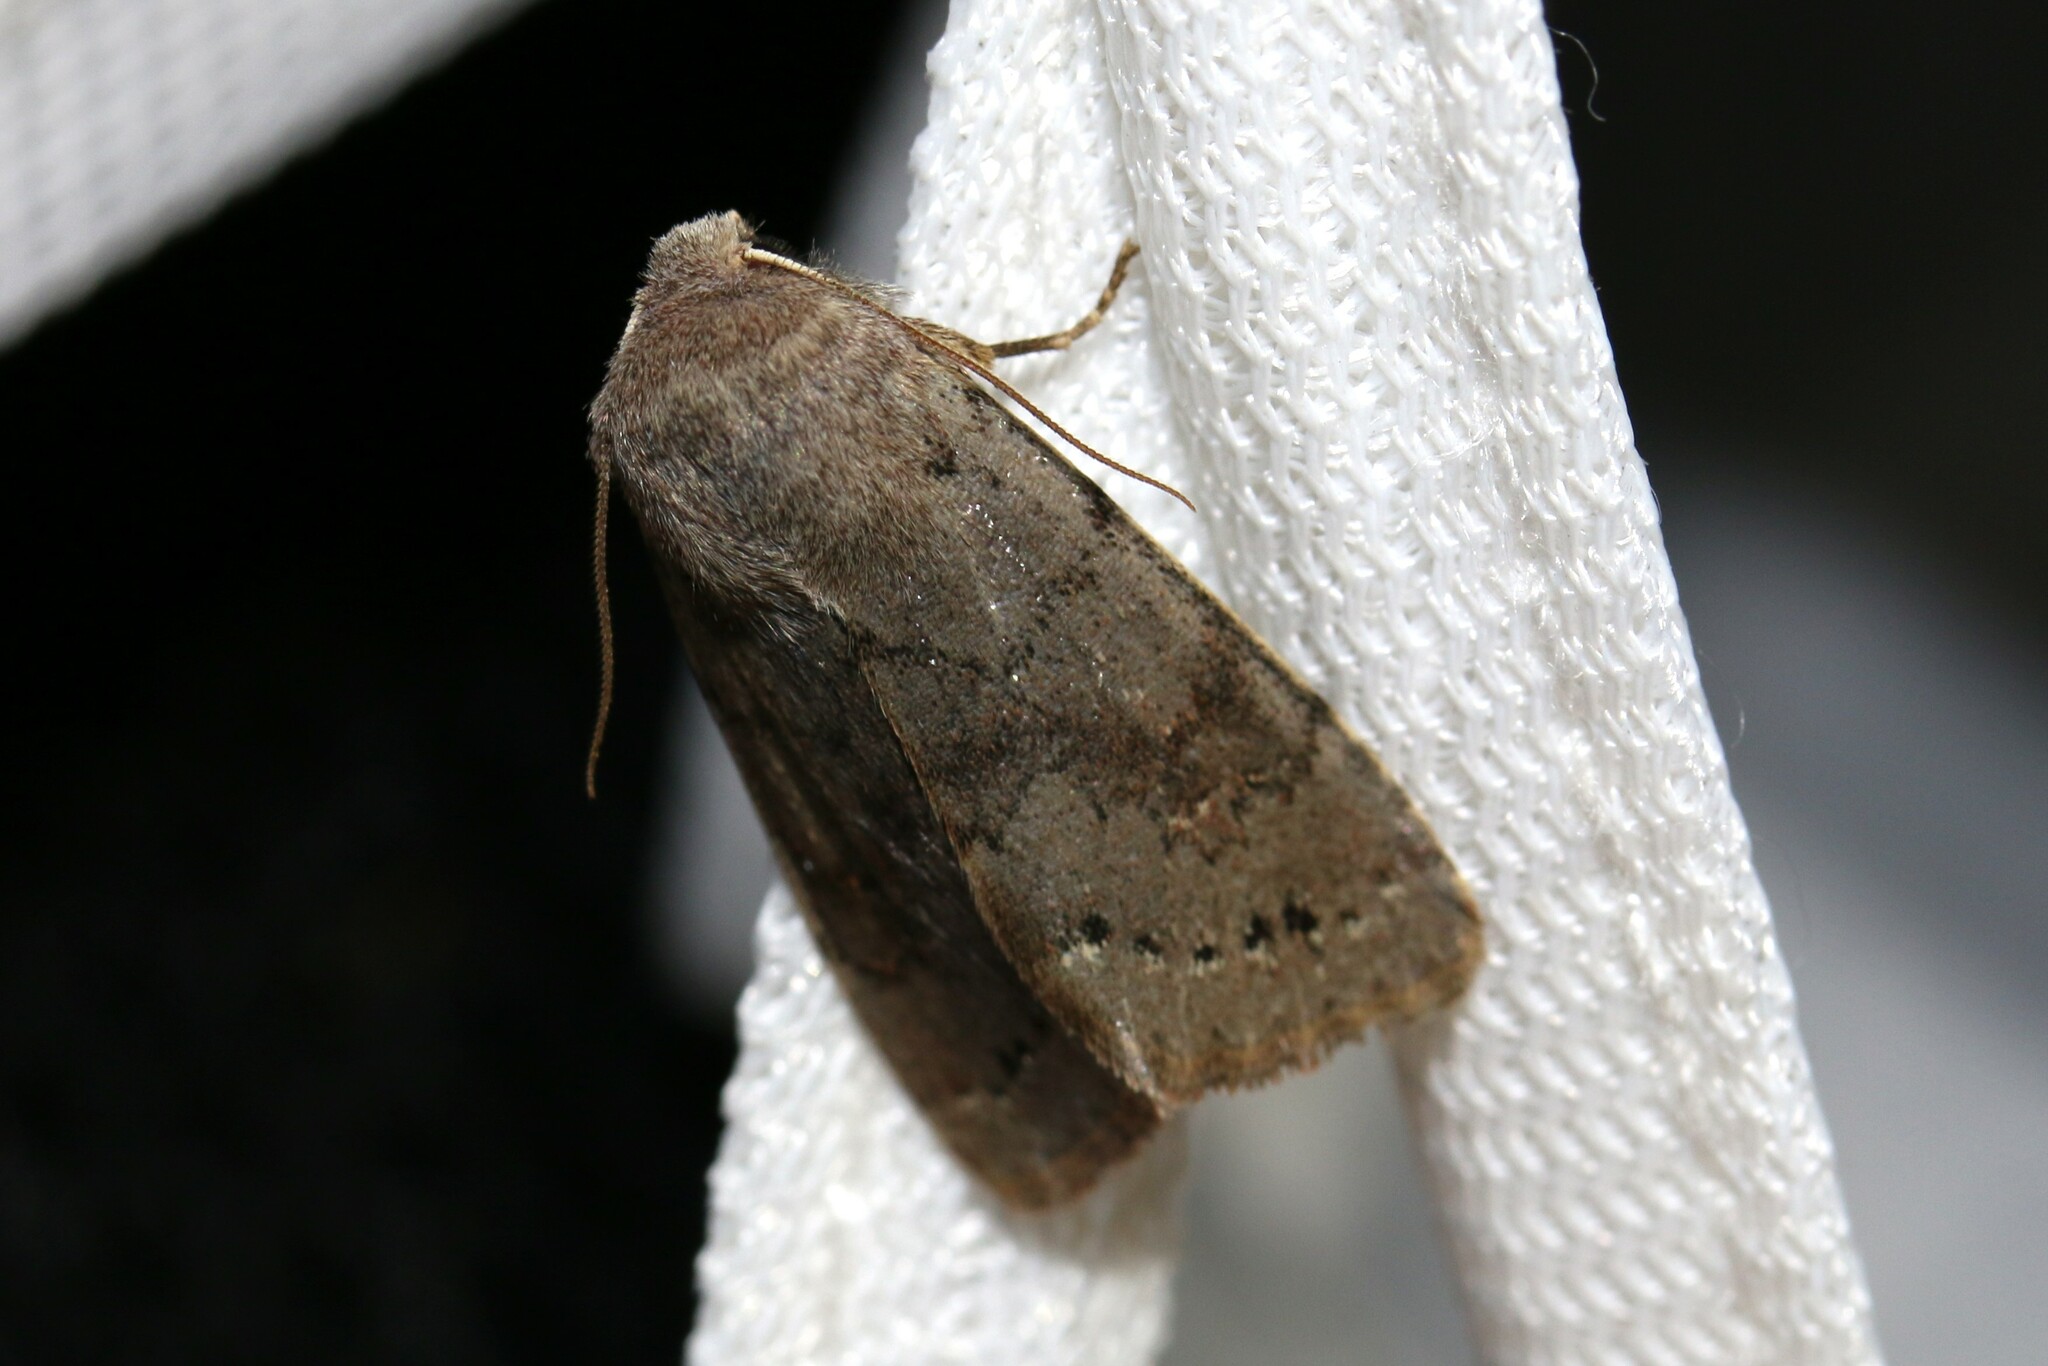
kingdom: Animalia
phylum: Arthropoda
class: Insecta
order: Lepidoptera
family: Noctuidae
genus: Orthosia
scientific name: Orthosia populeti
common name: Lead-coloured drab
